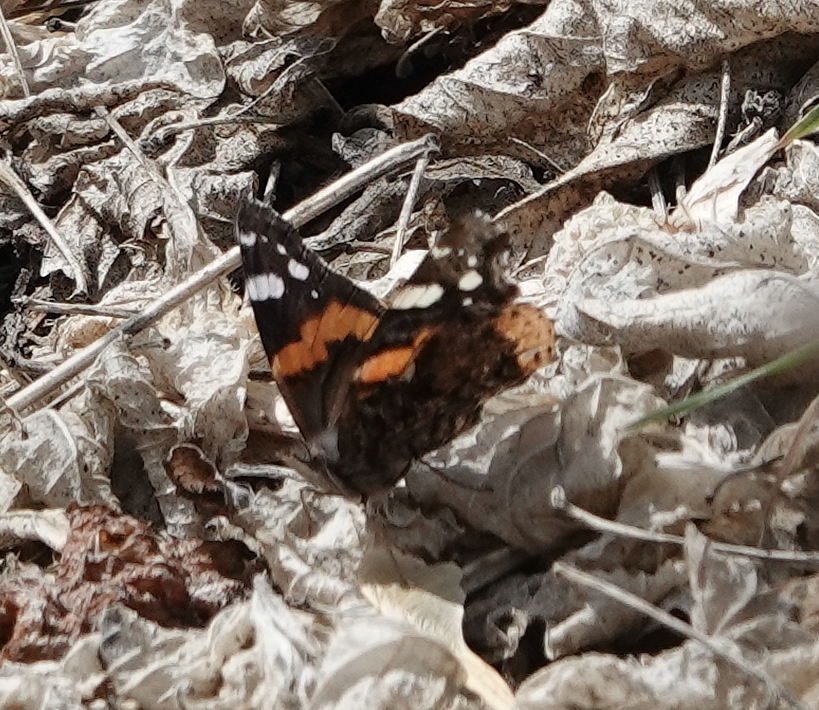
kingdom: Animalia
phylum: Arthropoda
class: Insecta
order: Lepidoptera
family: Nymphalidae
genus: Vanessa
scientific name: Vanessa atalanta
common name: Red admiral
